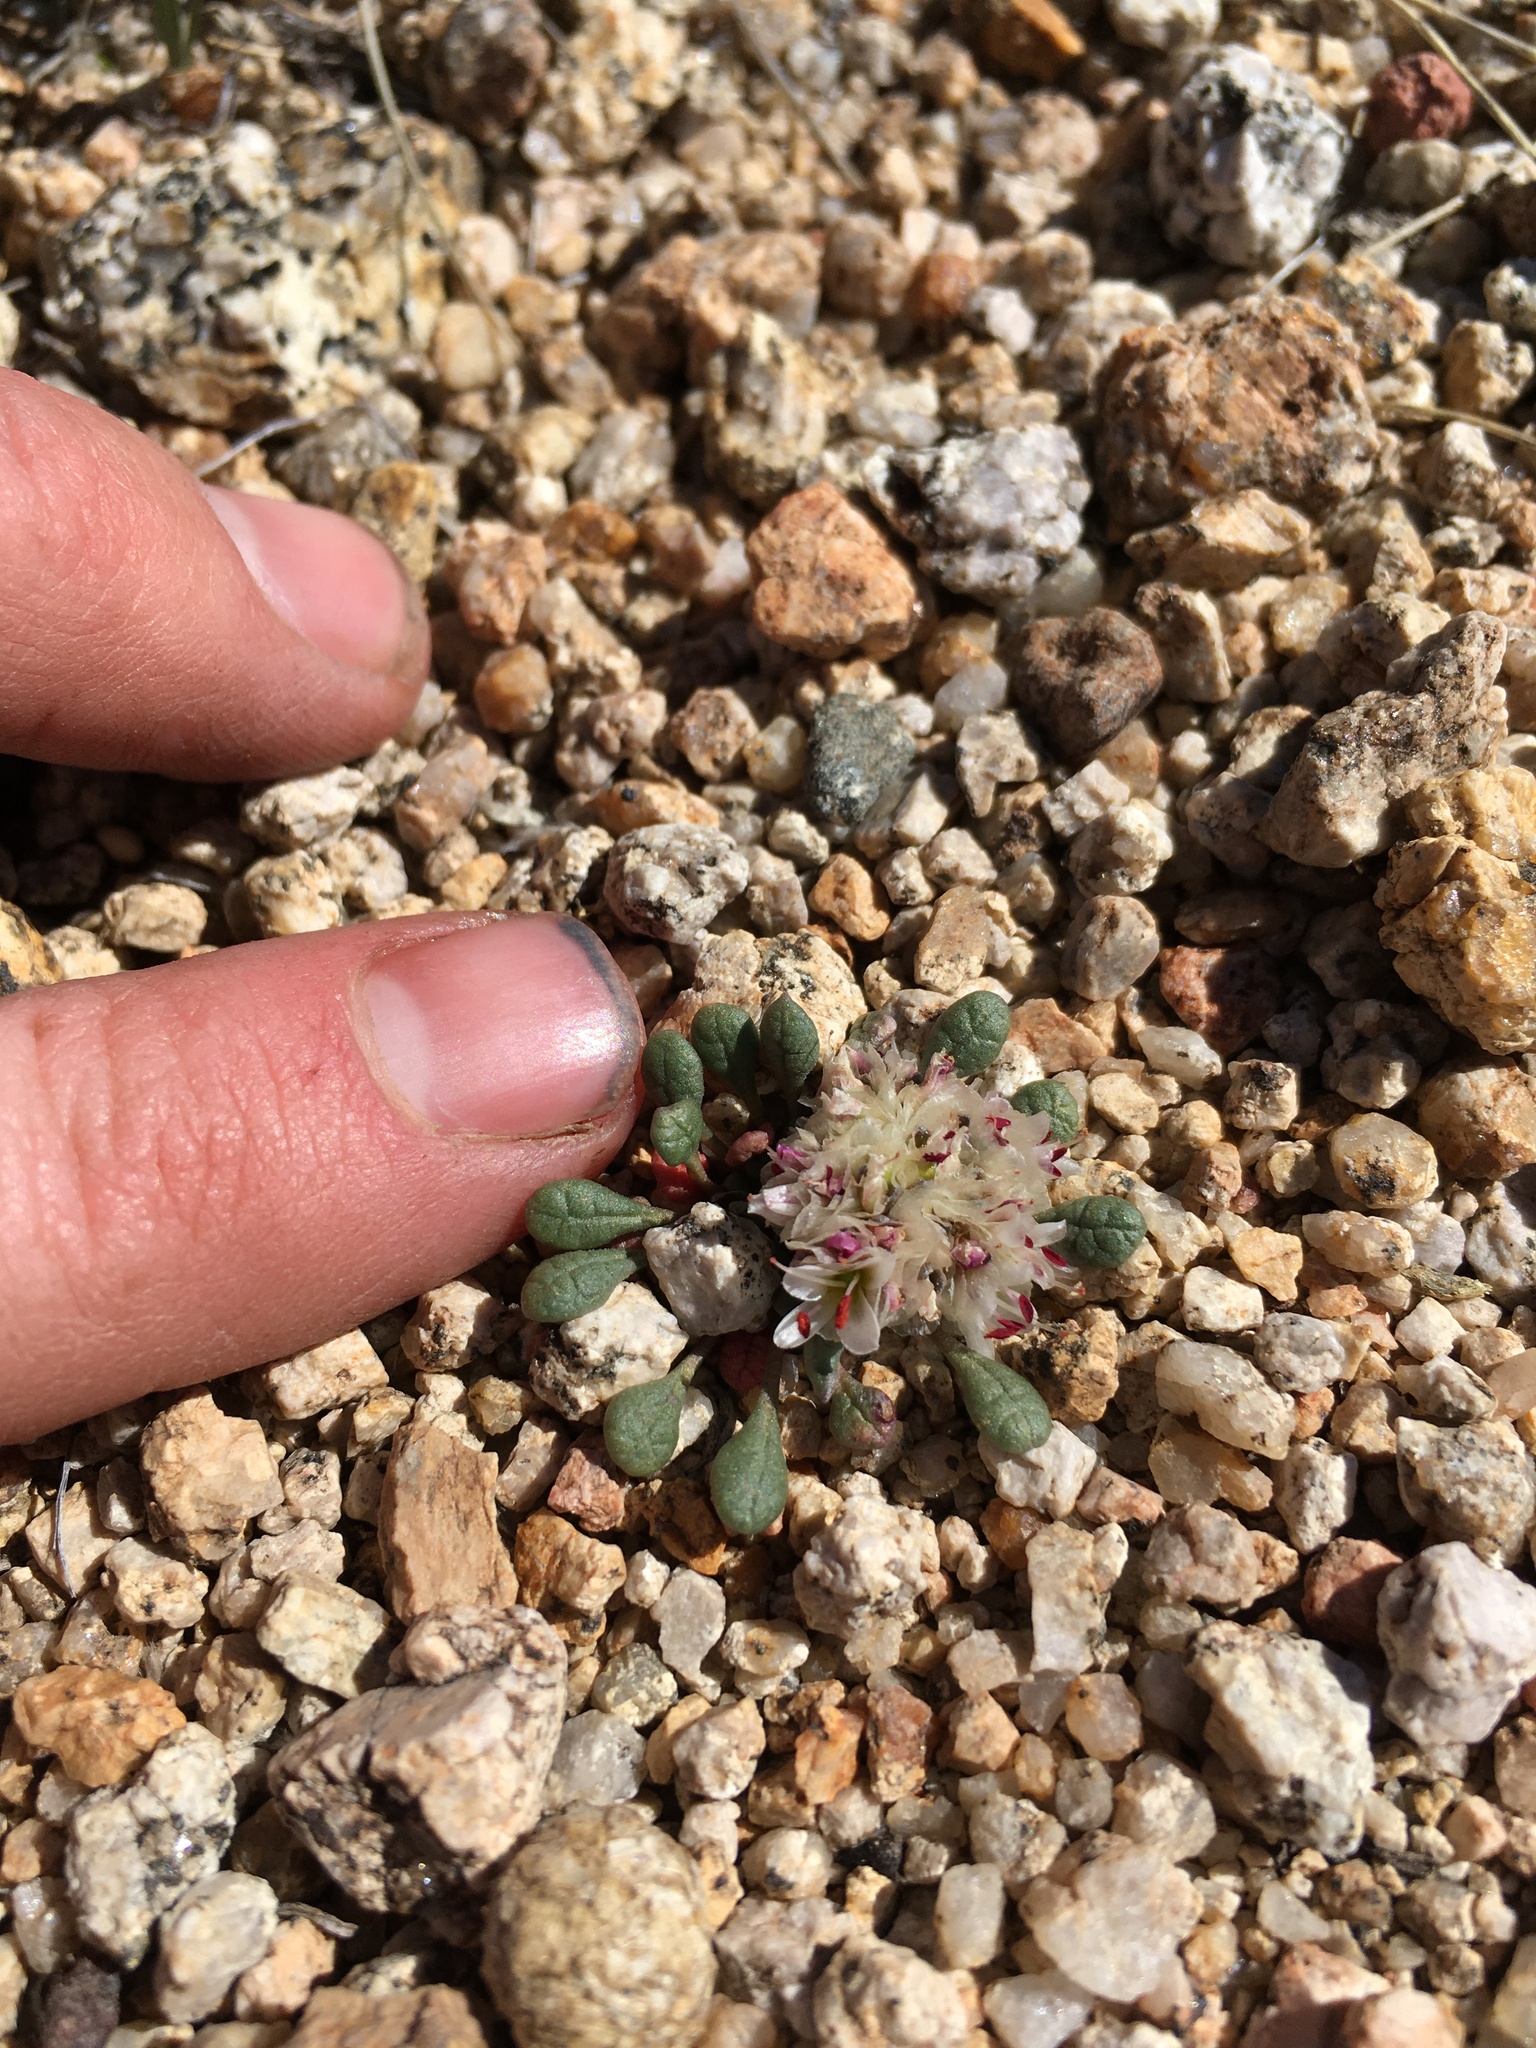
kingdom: Plantae
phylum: Tracheophyta
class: Magnoliopsida
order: Caryophyllales
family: Montiaceae
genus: Calyptridium
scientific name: Calyptridium umbellatum
